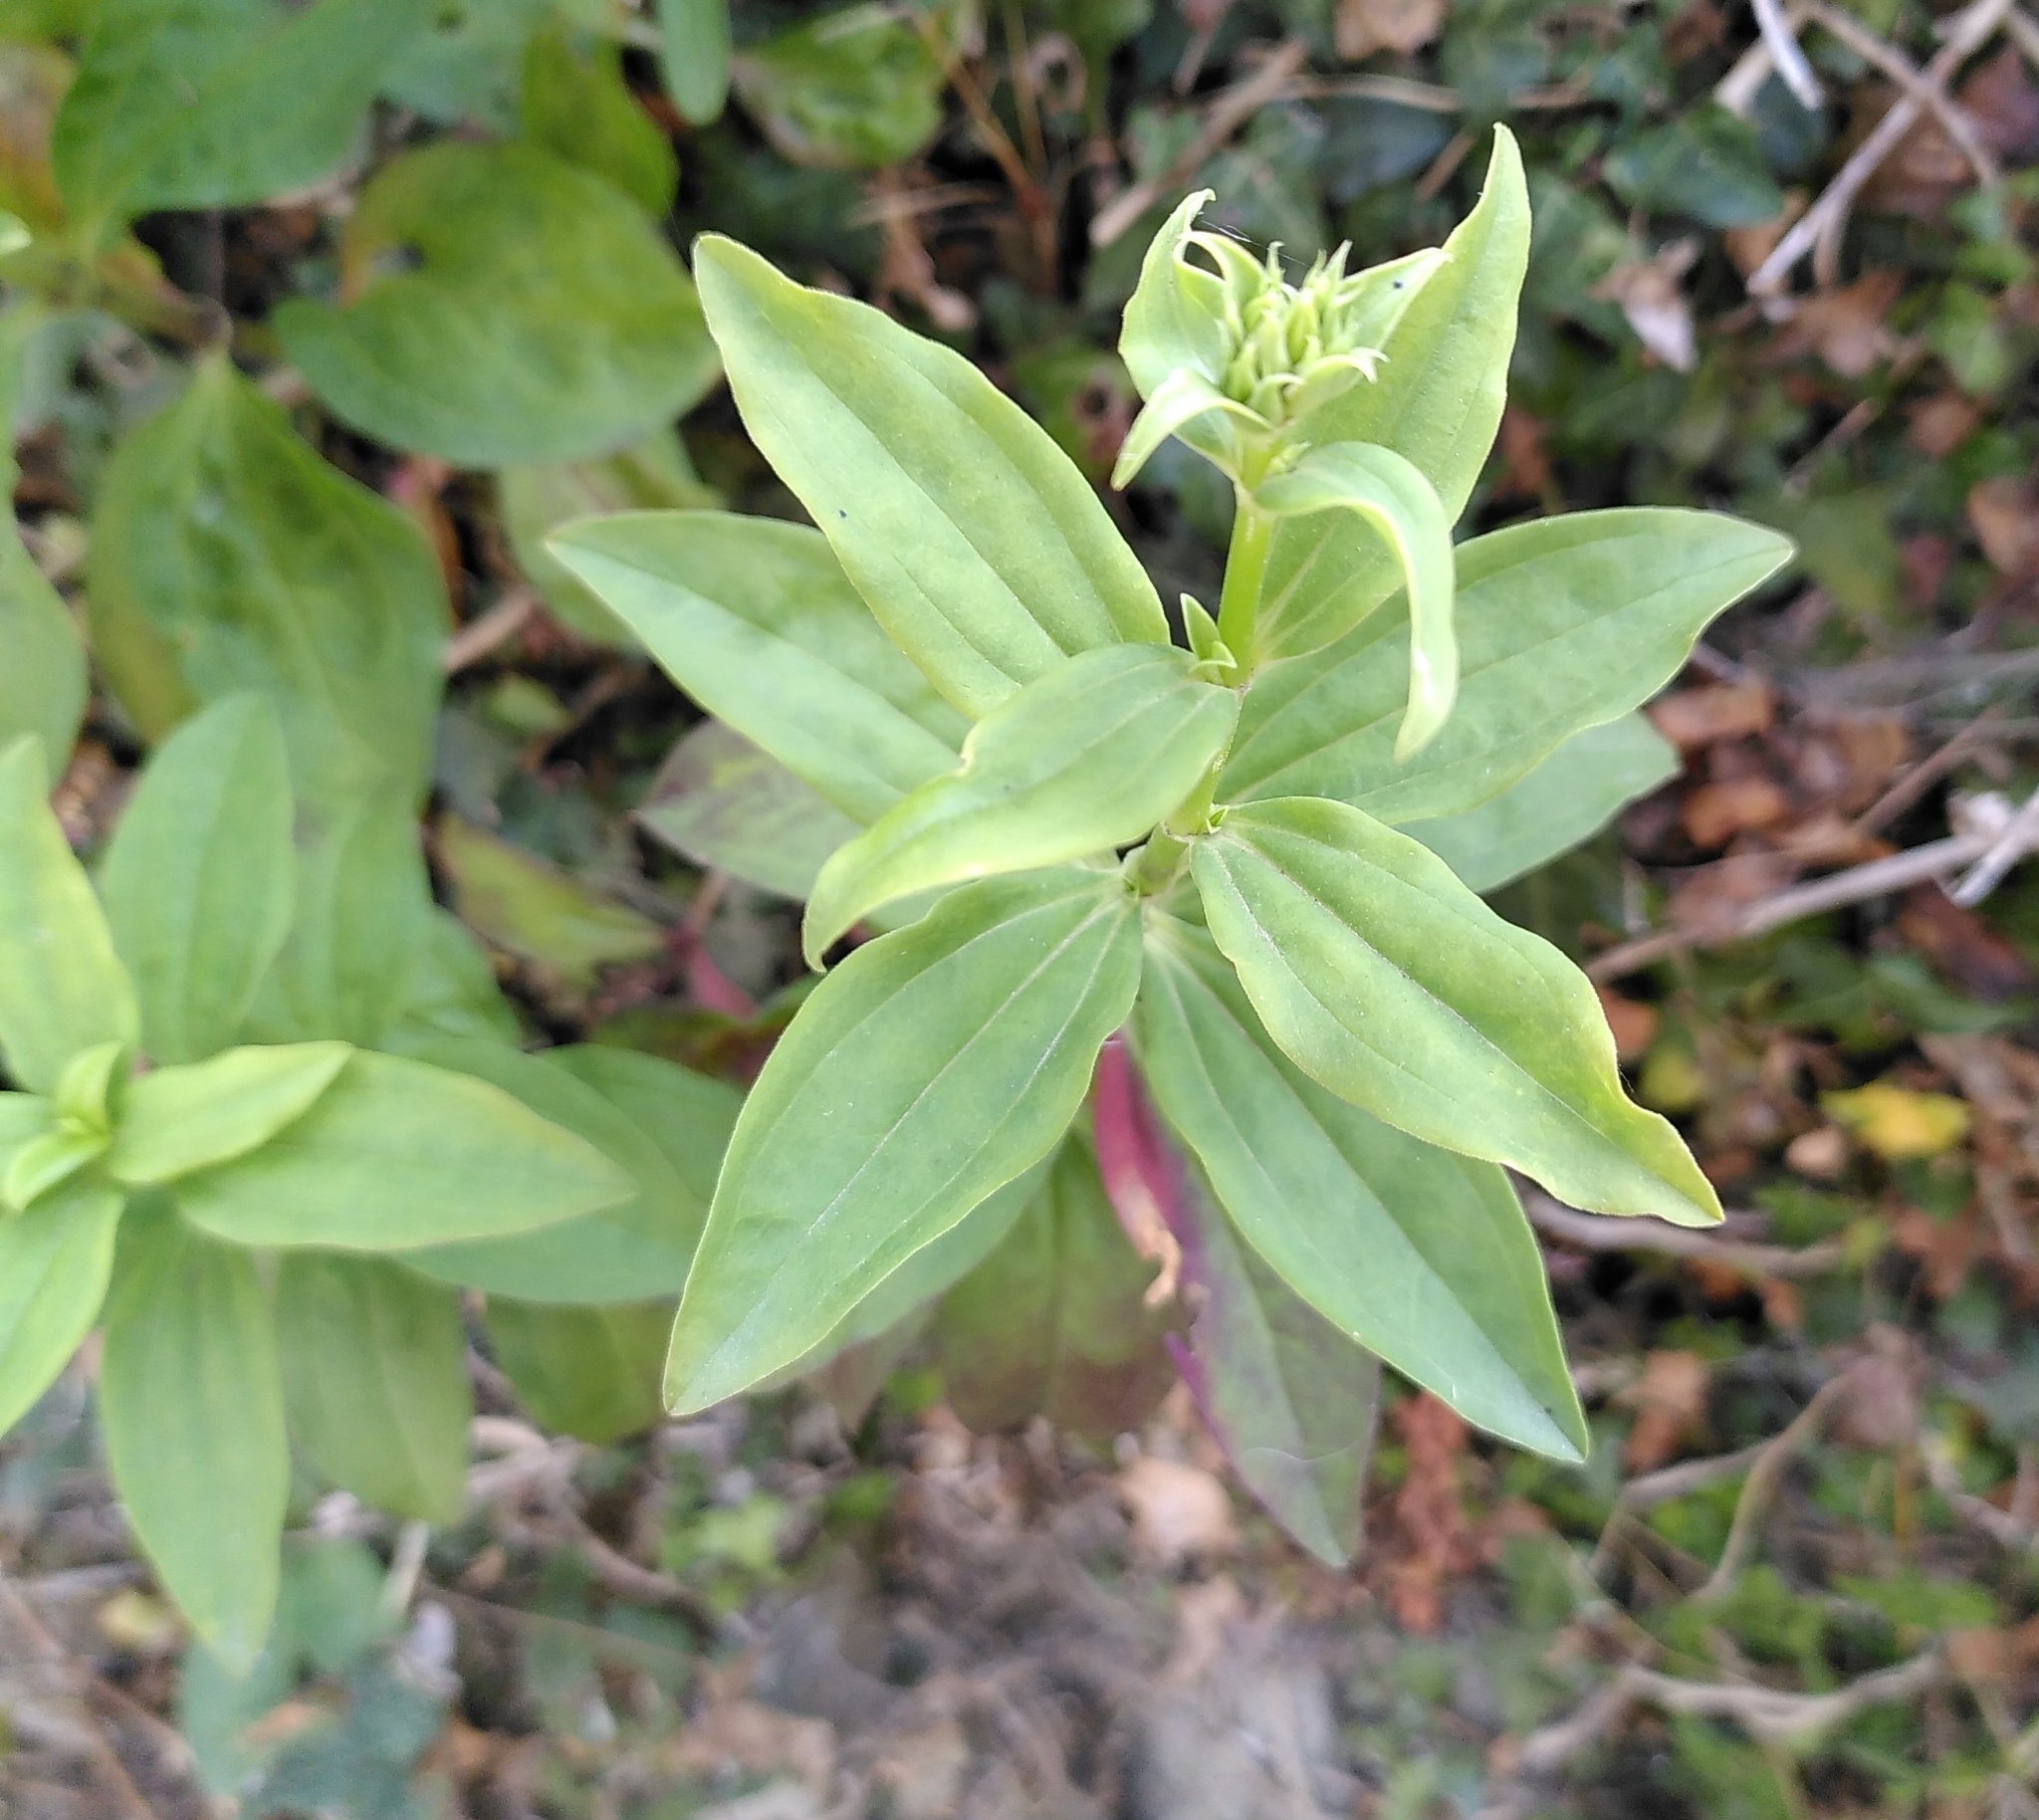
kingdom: Plantae
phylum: Tracheophyta
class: Magnoliopsida
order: Caryophyllales
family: Caryophyllaceae
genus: Saponaria
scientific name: Saponaria officinalis
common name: Soapwort
